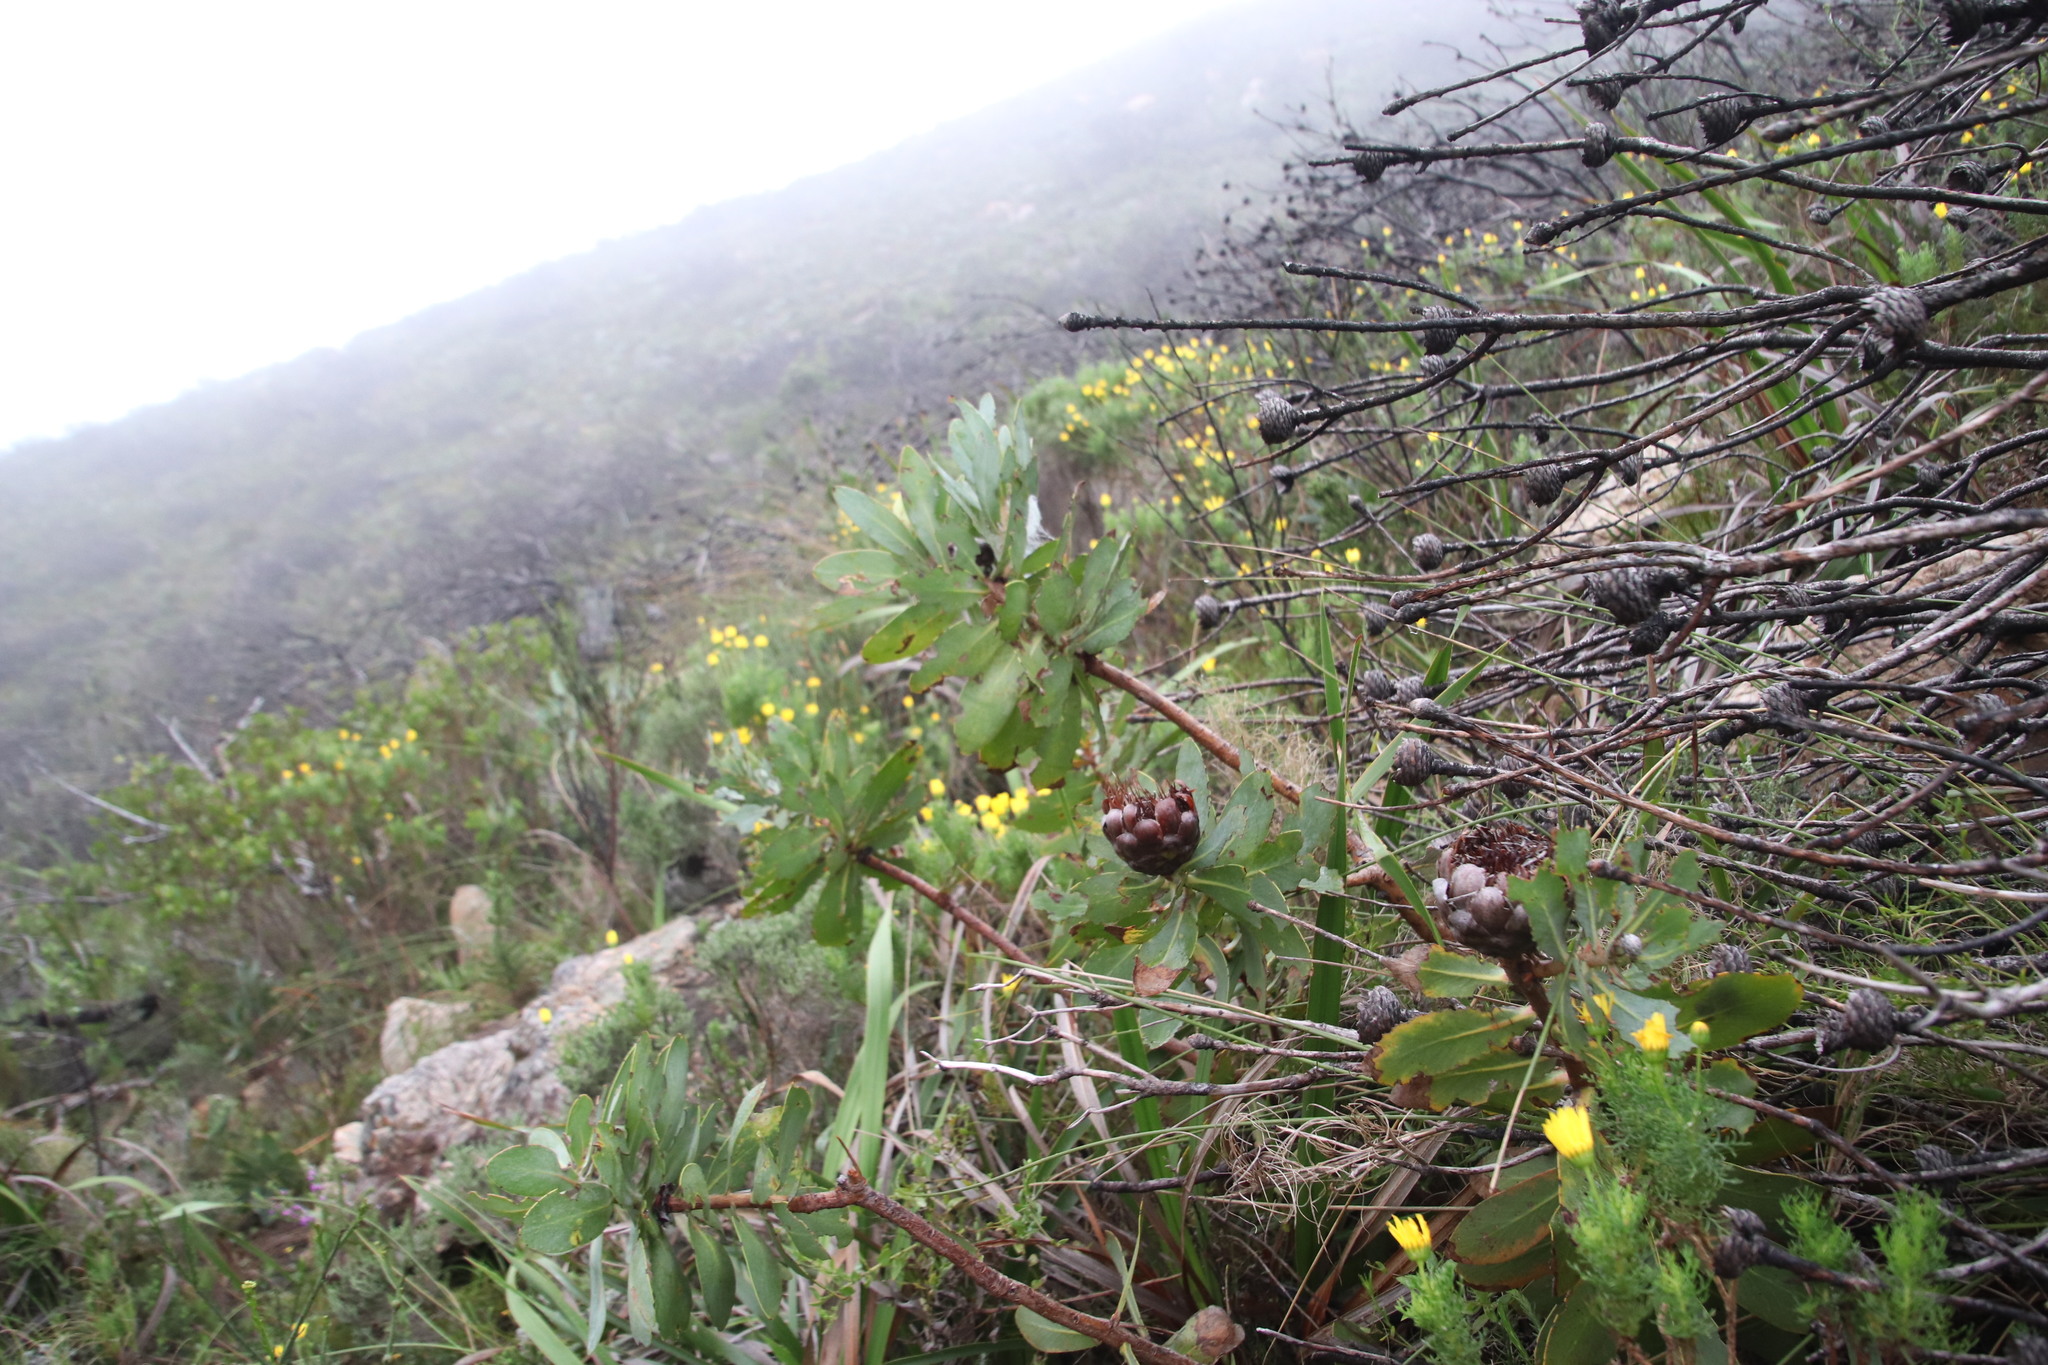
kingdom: Plantae
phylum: Tracheophyta
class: Magnoliopsida
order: Proteales
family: Proteaceae
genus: Protea
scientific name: Protea nitida
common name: Tree protea
